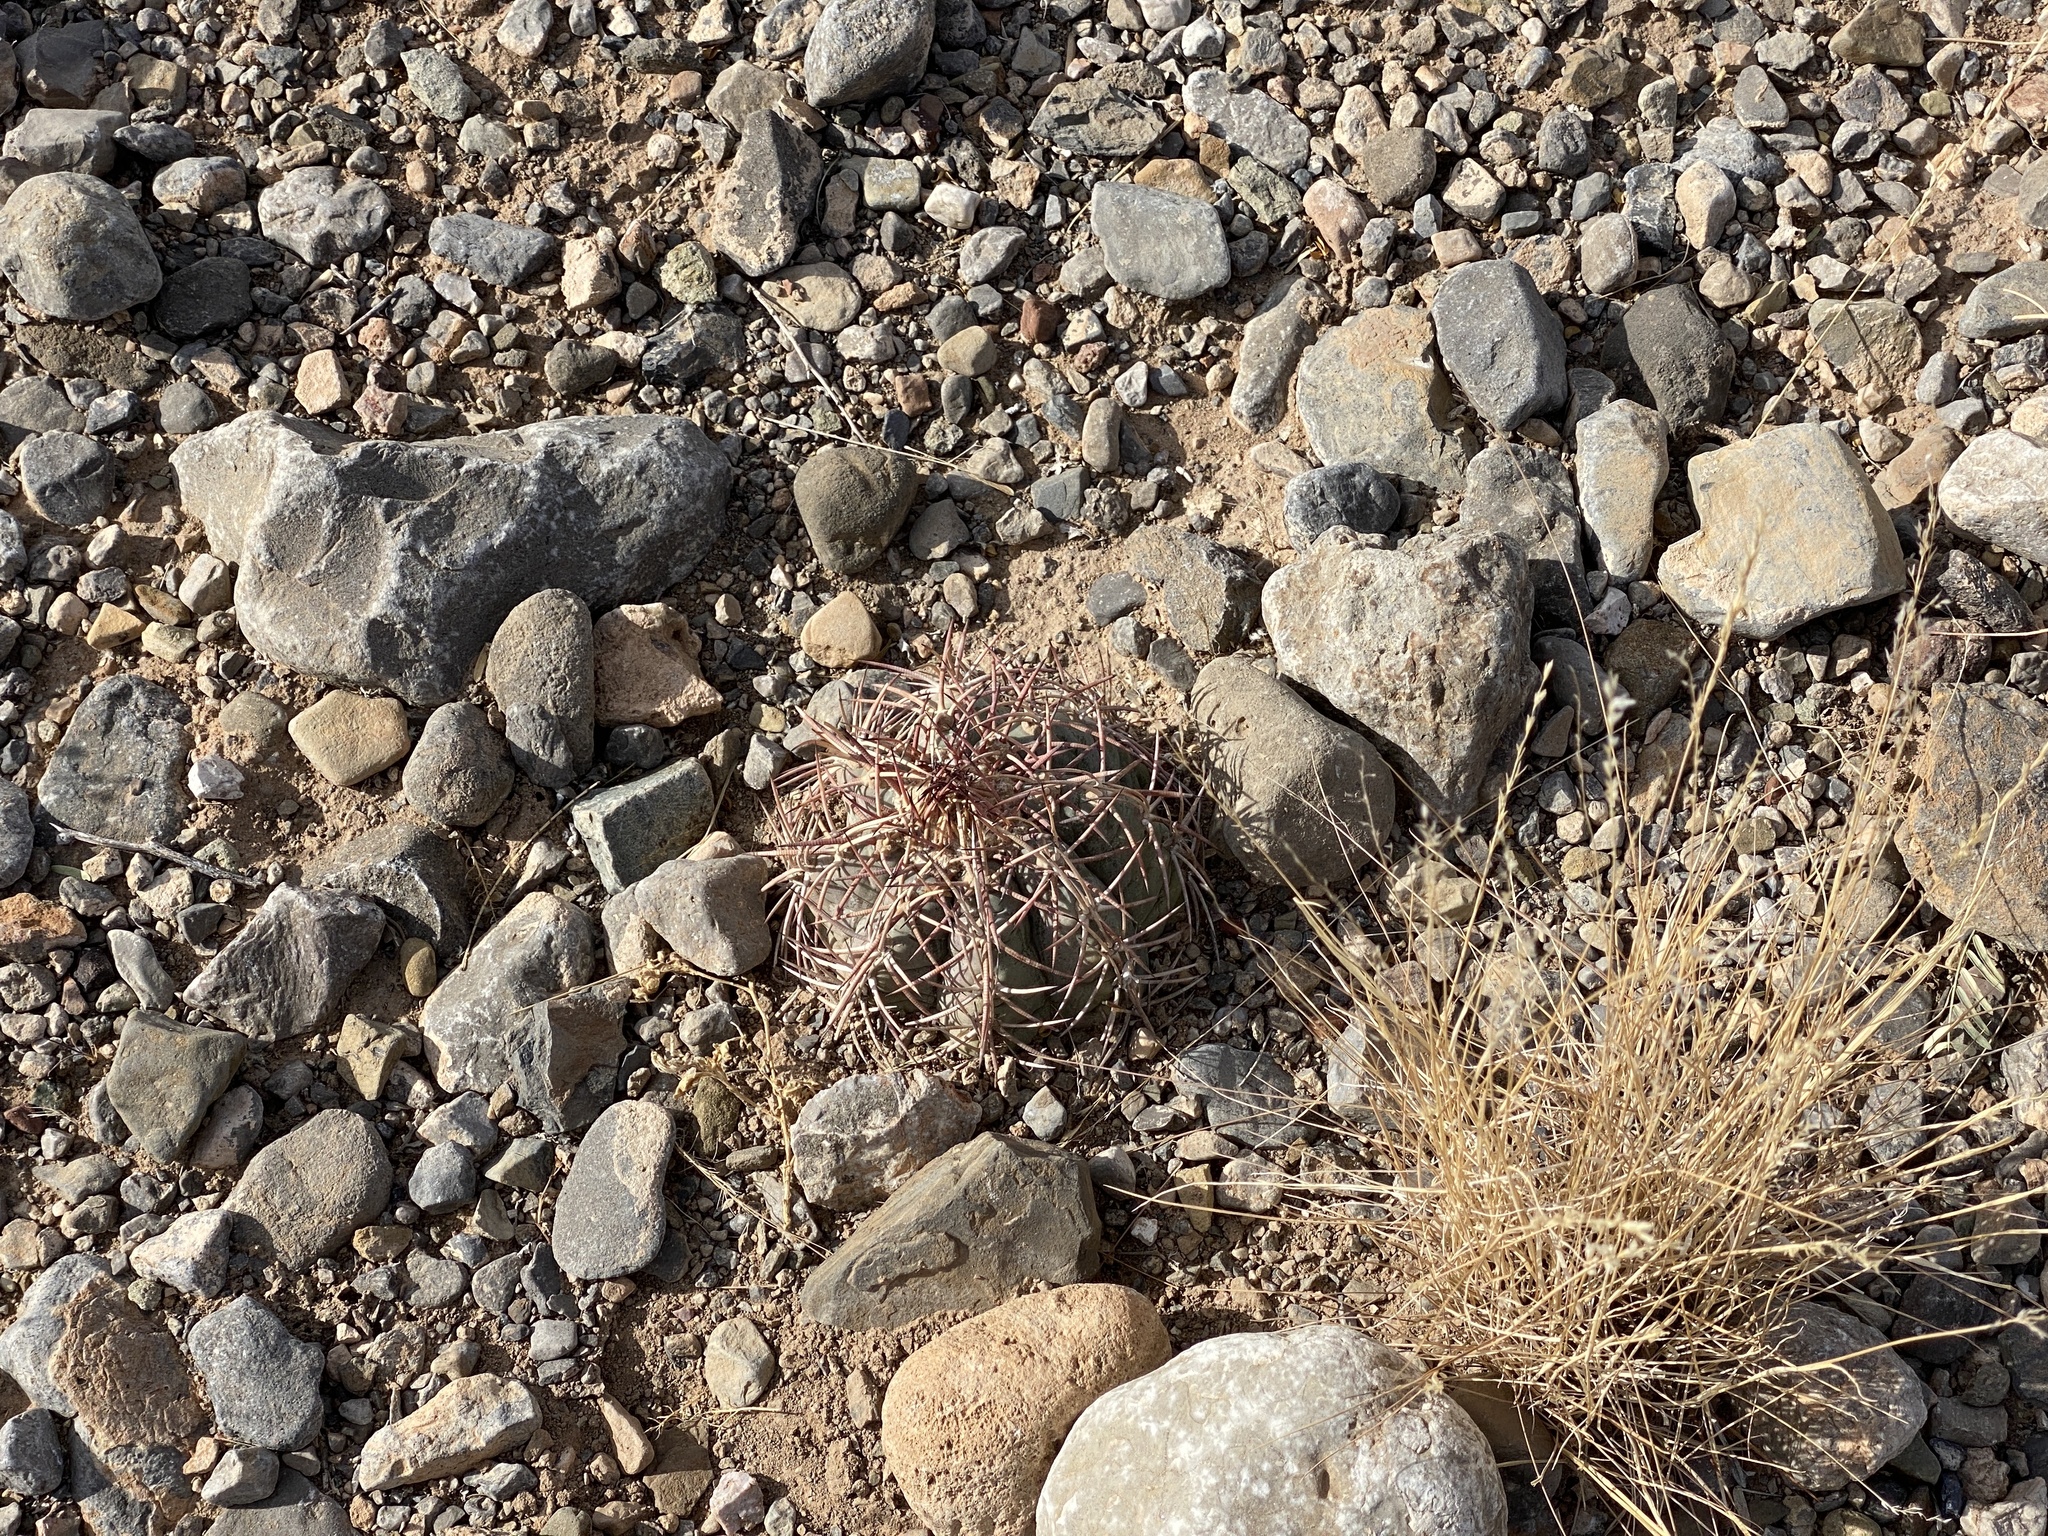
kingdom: Plantae
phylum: Tracheophyta
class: Magnoliopsida
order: Caryophyllales
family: Cactaceae
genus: Echinocactus
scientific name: Echinocactus horizonthalonius
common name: Devilshead
